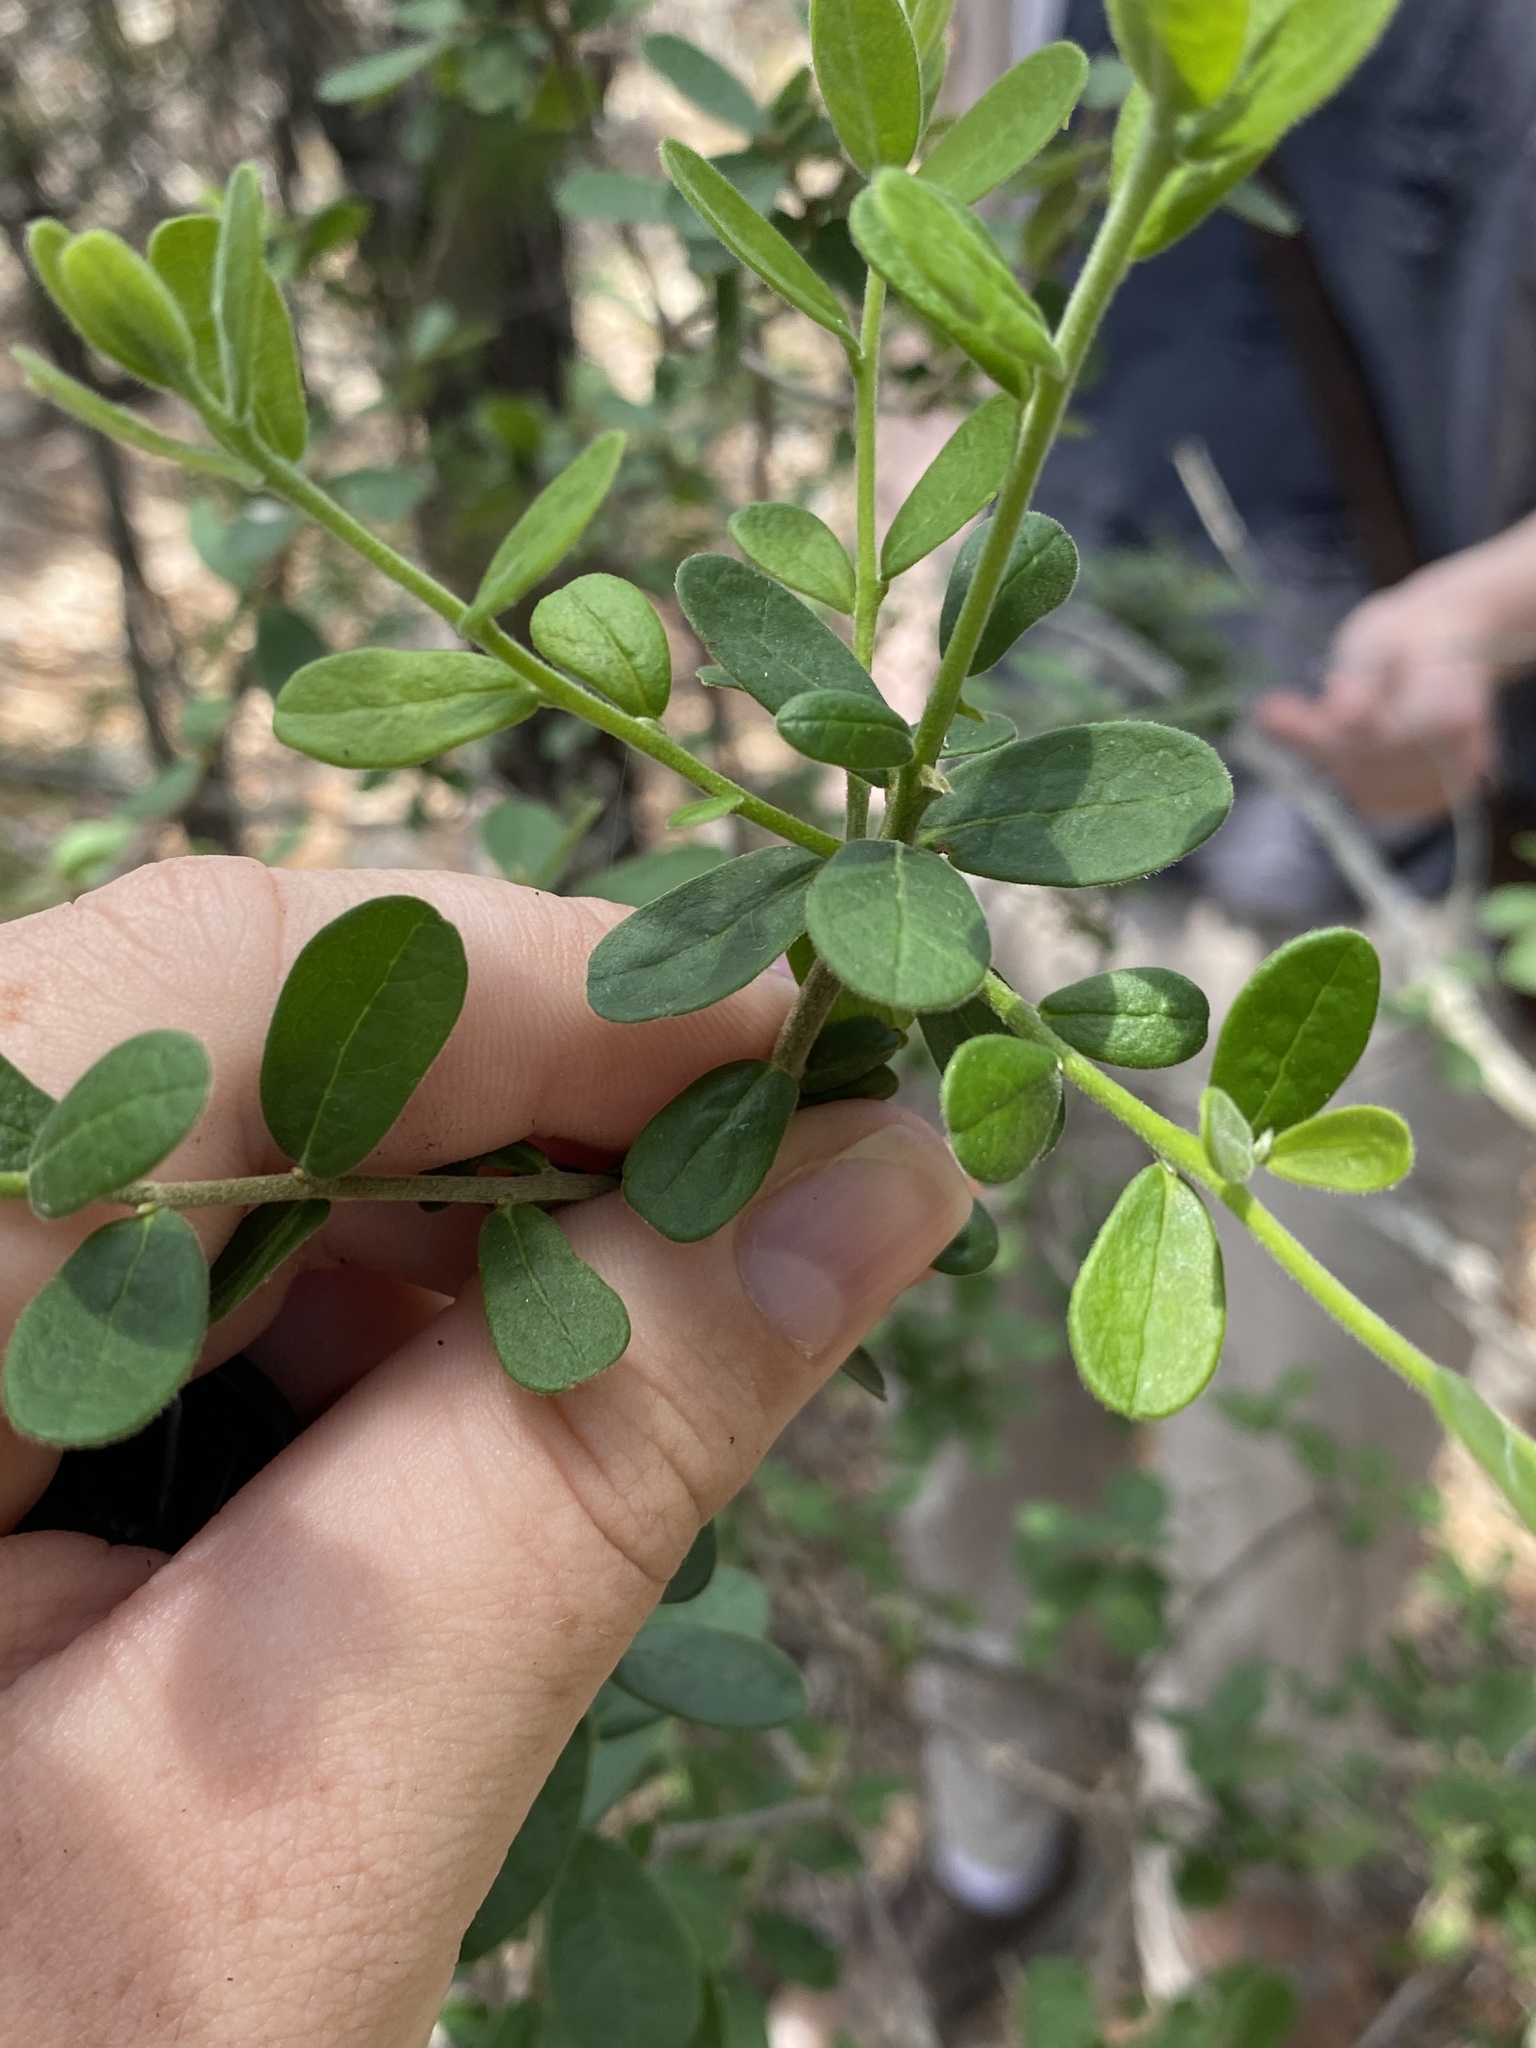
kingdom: Plantae
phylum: Tracheophyta
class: Magnoliopsida
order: Ericales
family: Ebenaceae
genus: Diospyros
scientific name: Diospyros texana
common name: Texas persimmon
